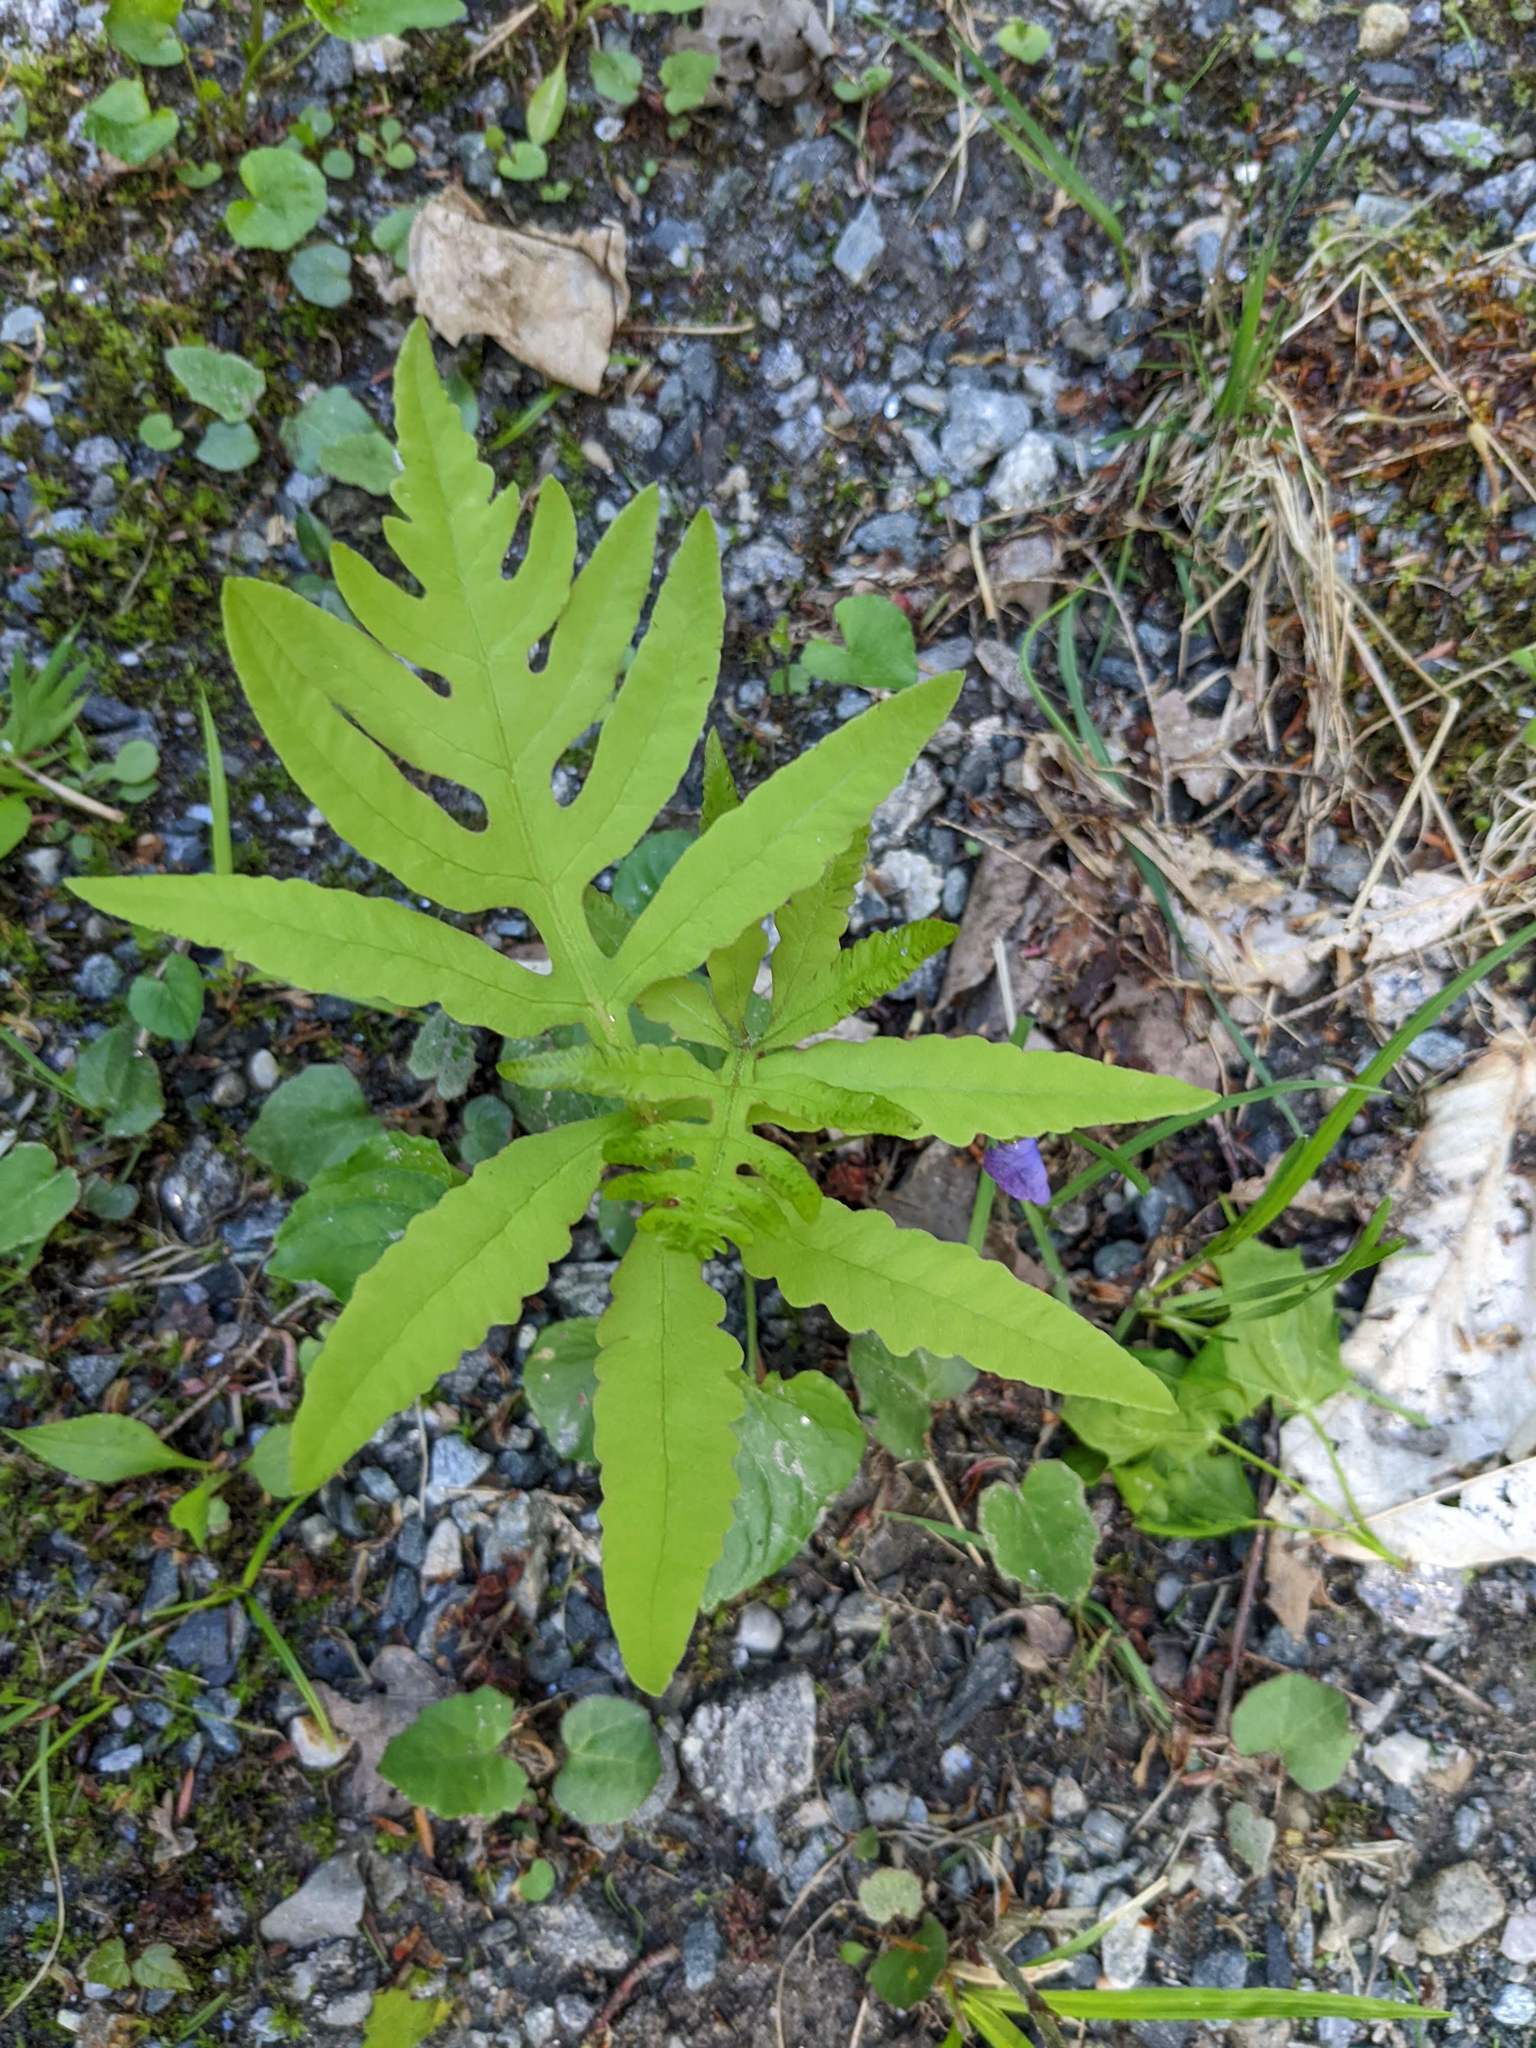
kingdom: Plantae
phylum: Tracheophyta
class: Polypodiopsida
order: Polypodiales
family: Onocleaceae
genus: Onoclea
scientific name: Onoclea sensibilis
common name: Sensitive fern
